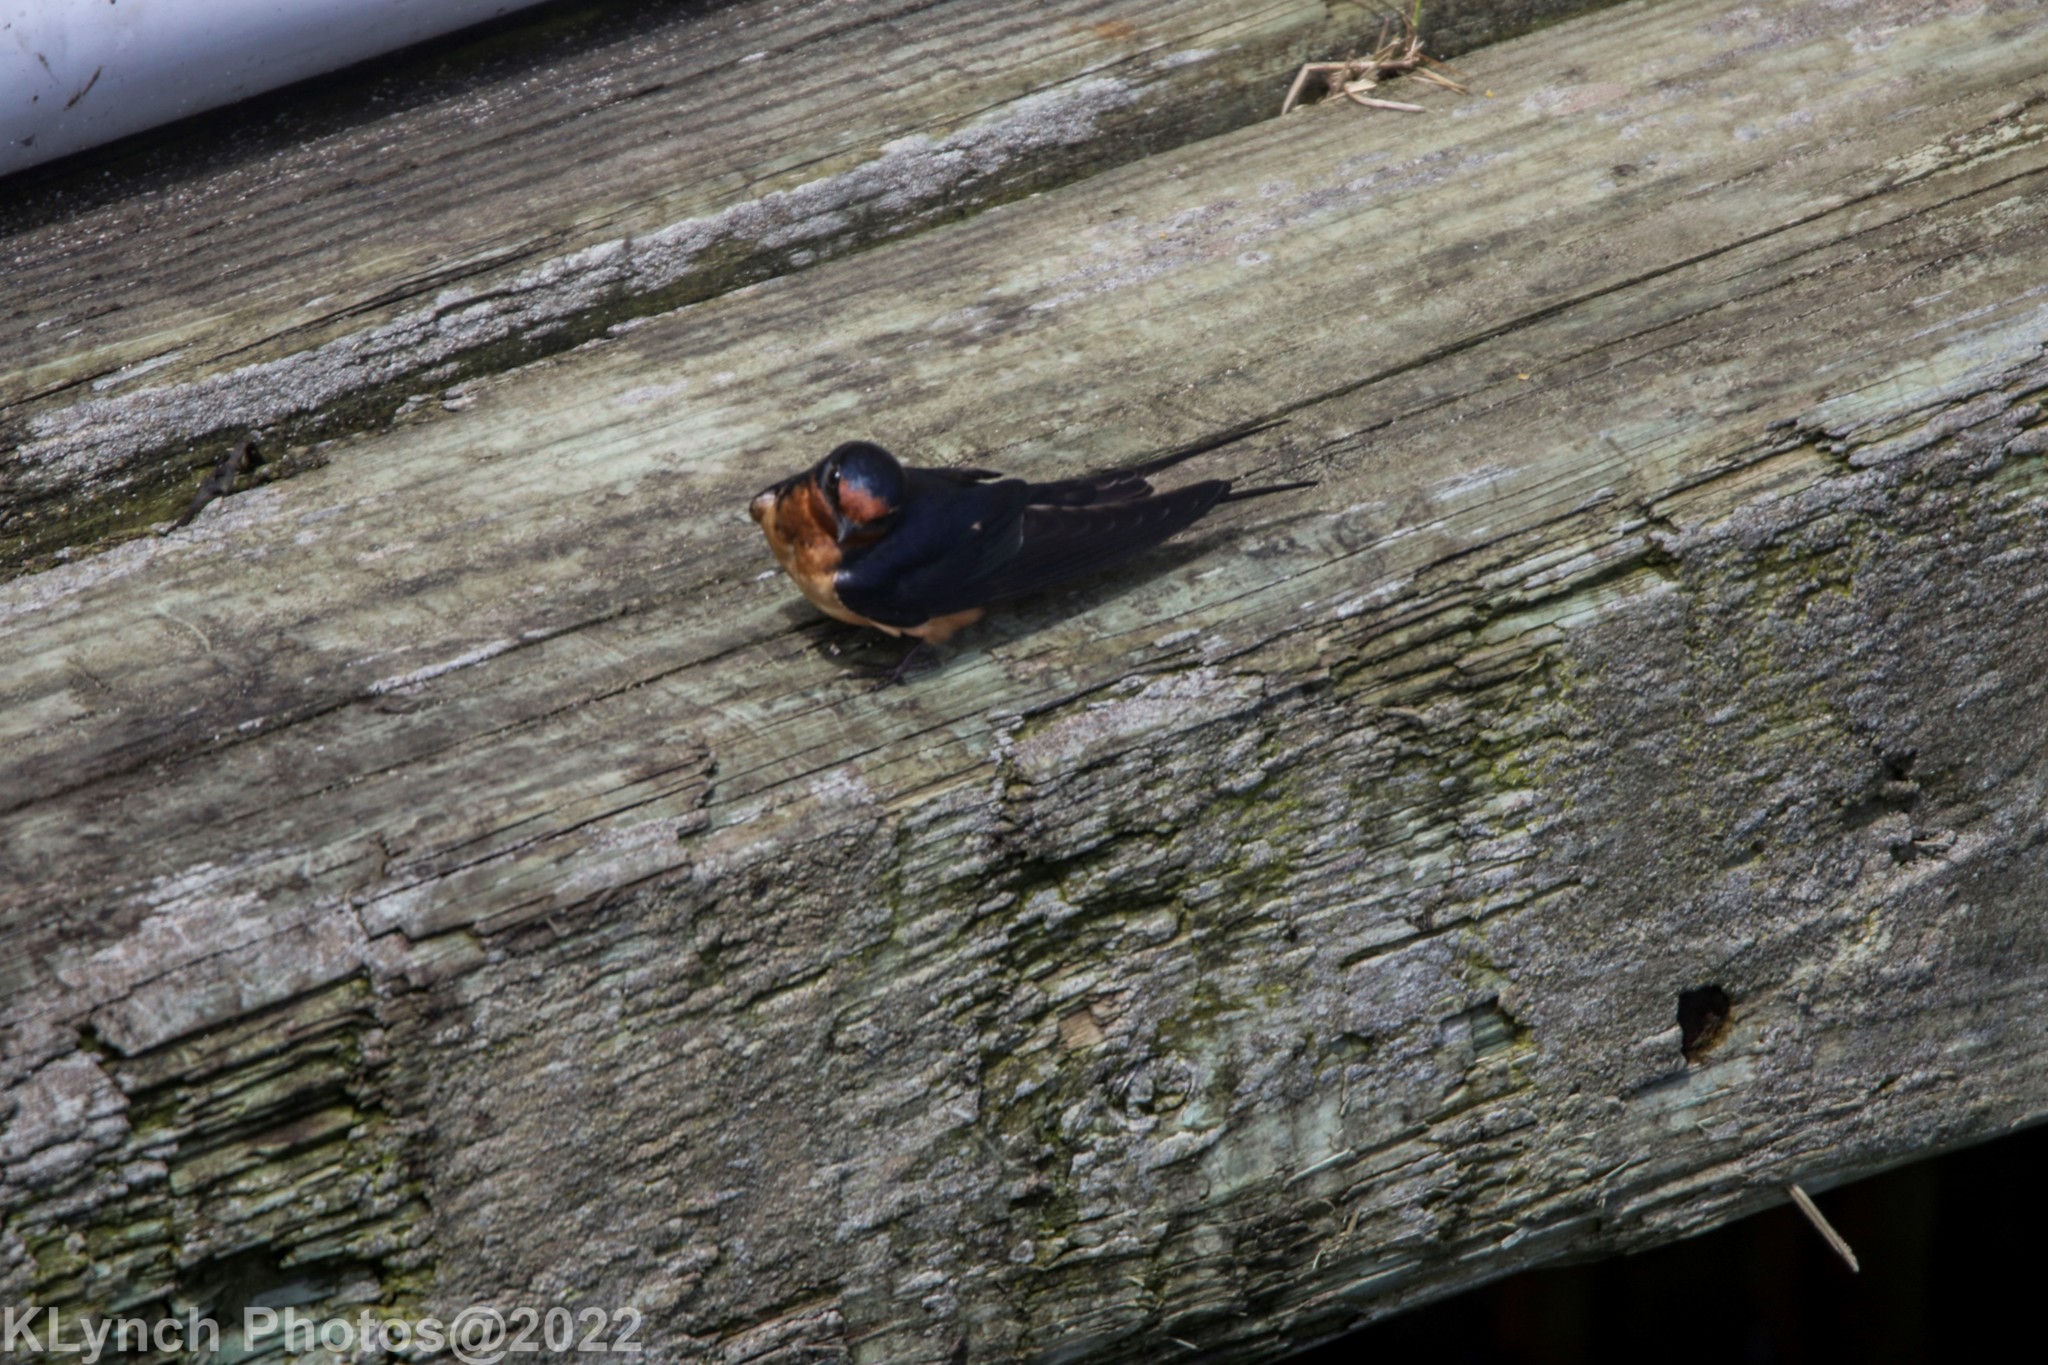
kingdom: Animalia
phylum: Chordata
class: Aves
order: Passeriformes
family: Hirundinidae
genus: Hirundo
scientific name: Hirundo rustica
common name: Barn swallow
